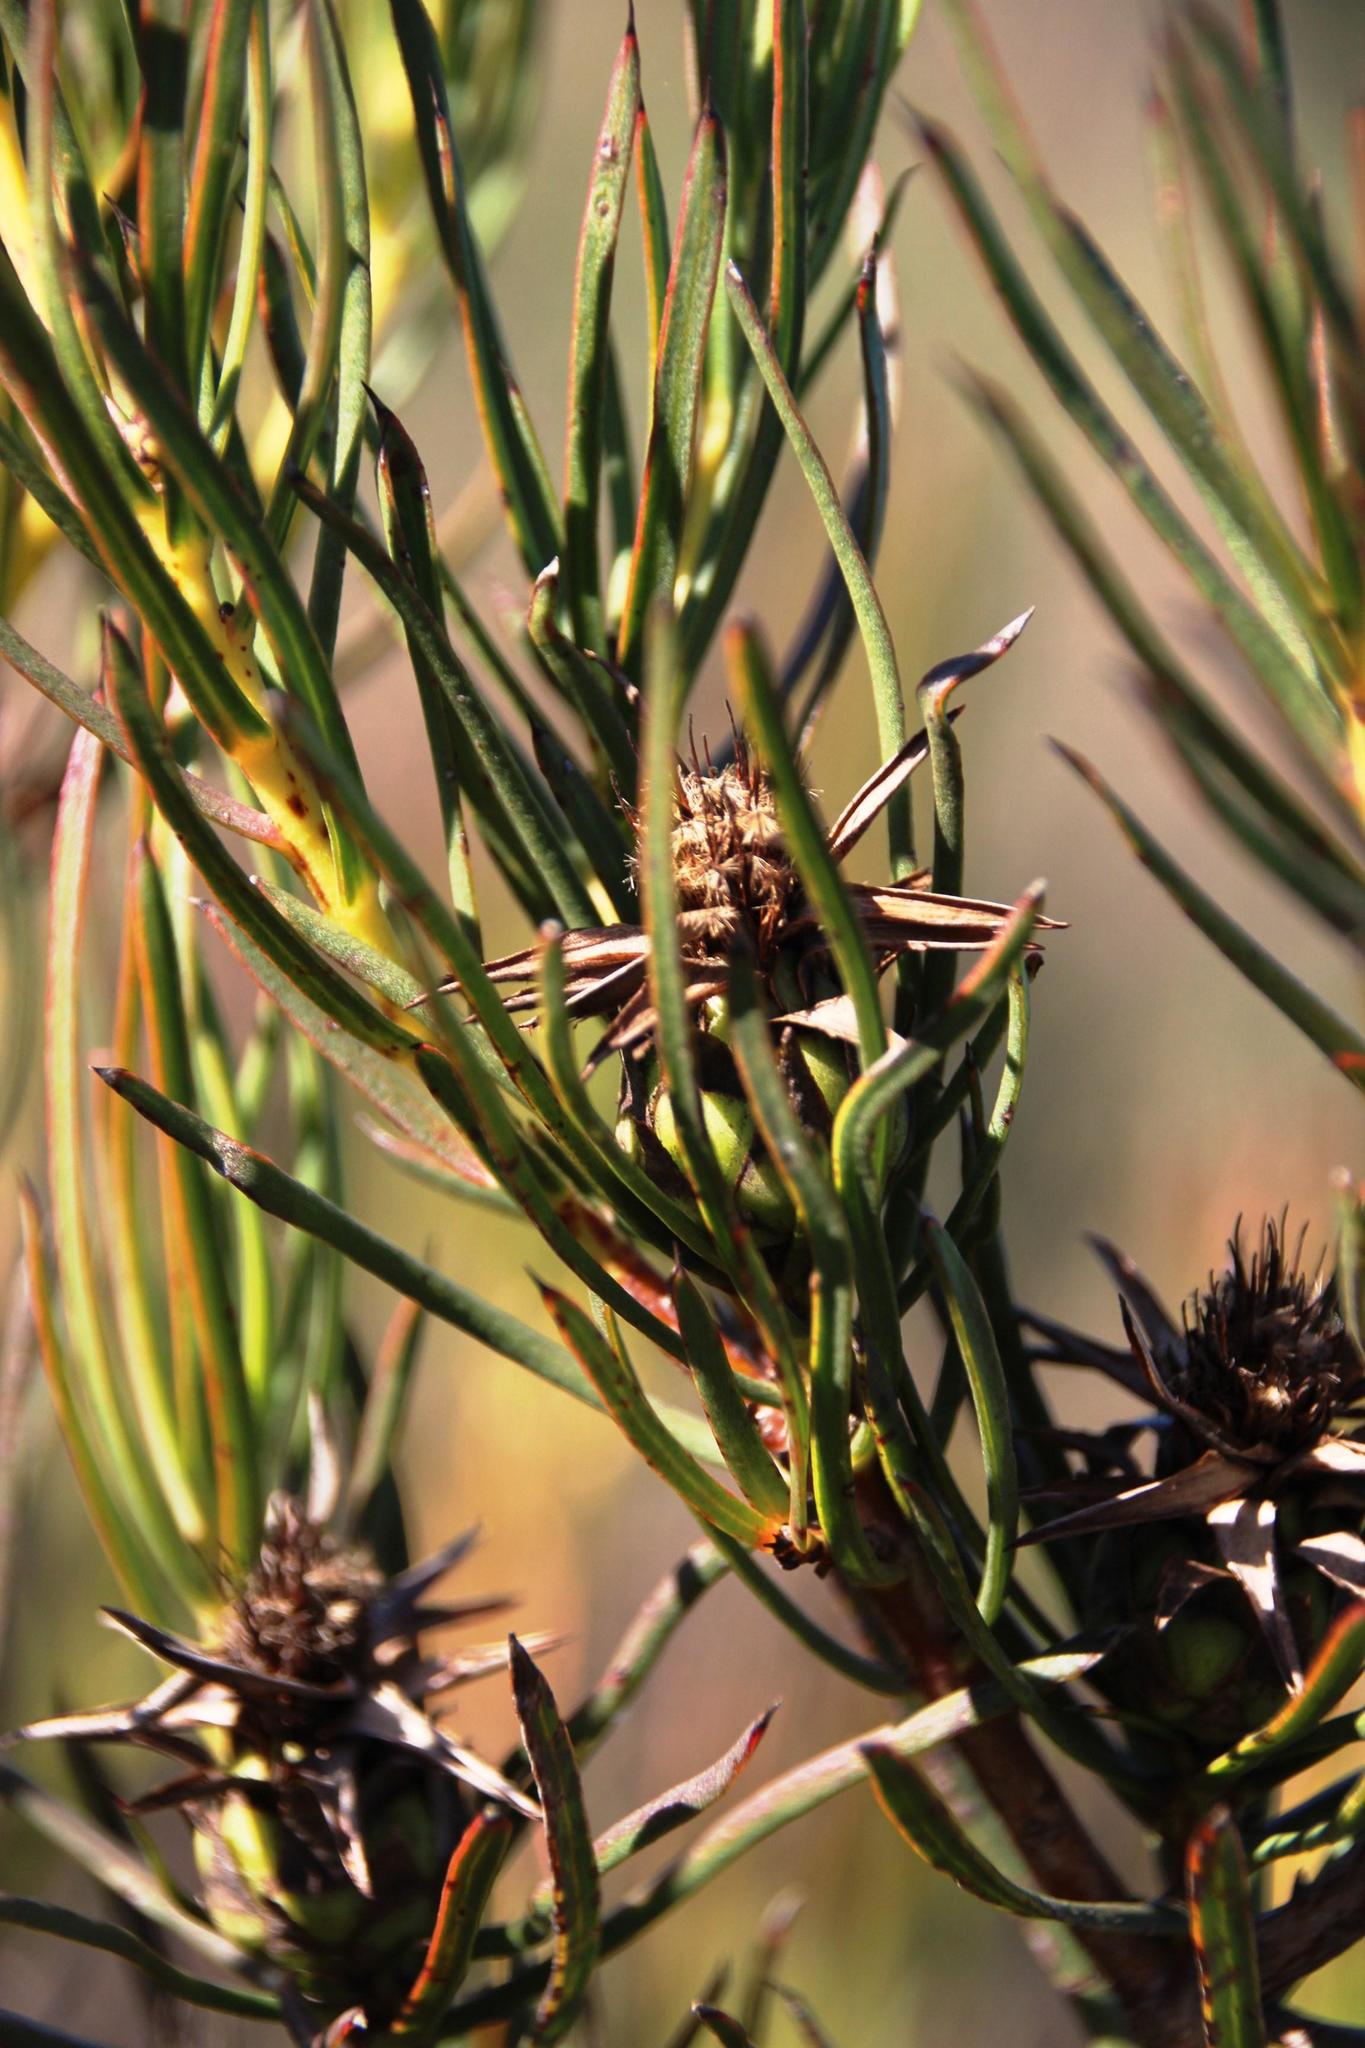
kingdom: Plantae
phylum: Tracheophyta
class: Magnoliopsida
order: Proteales
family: Proteaceae
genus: Protea
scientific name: Protea odorata
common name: Swartland sugarbush
